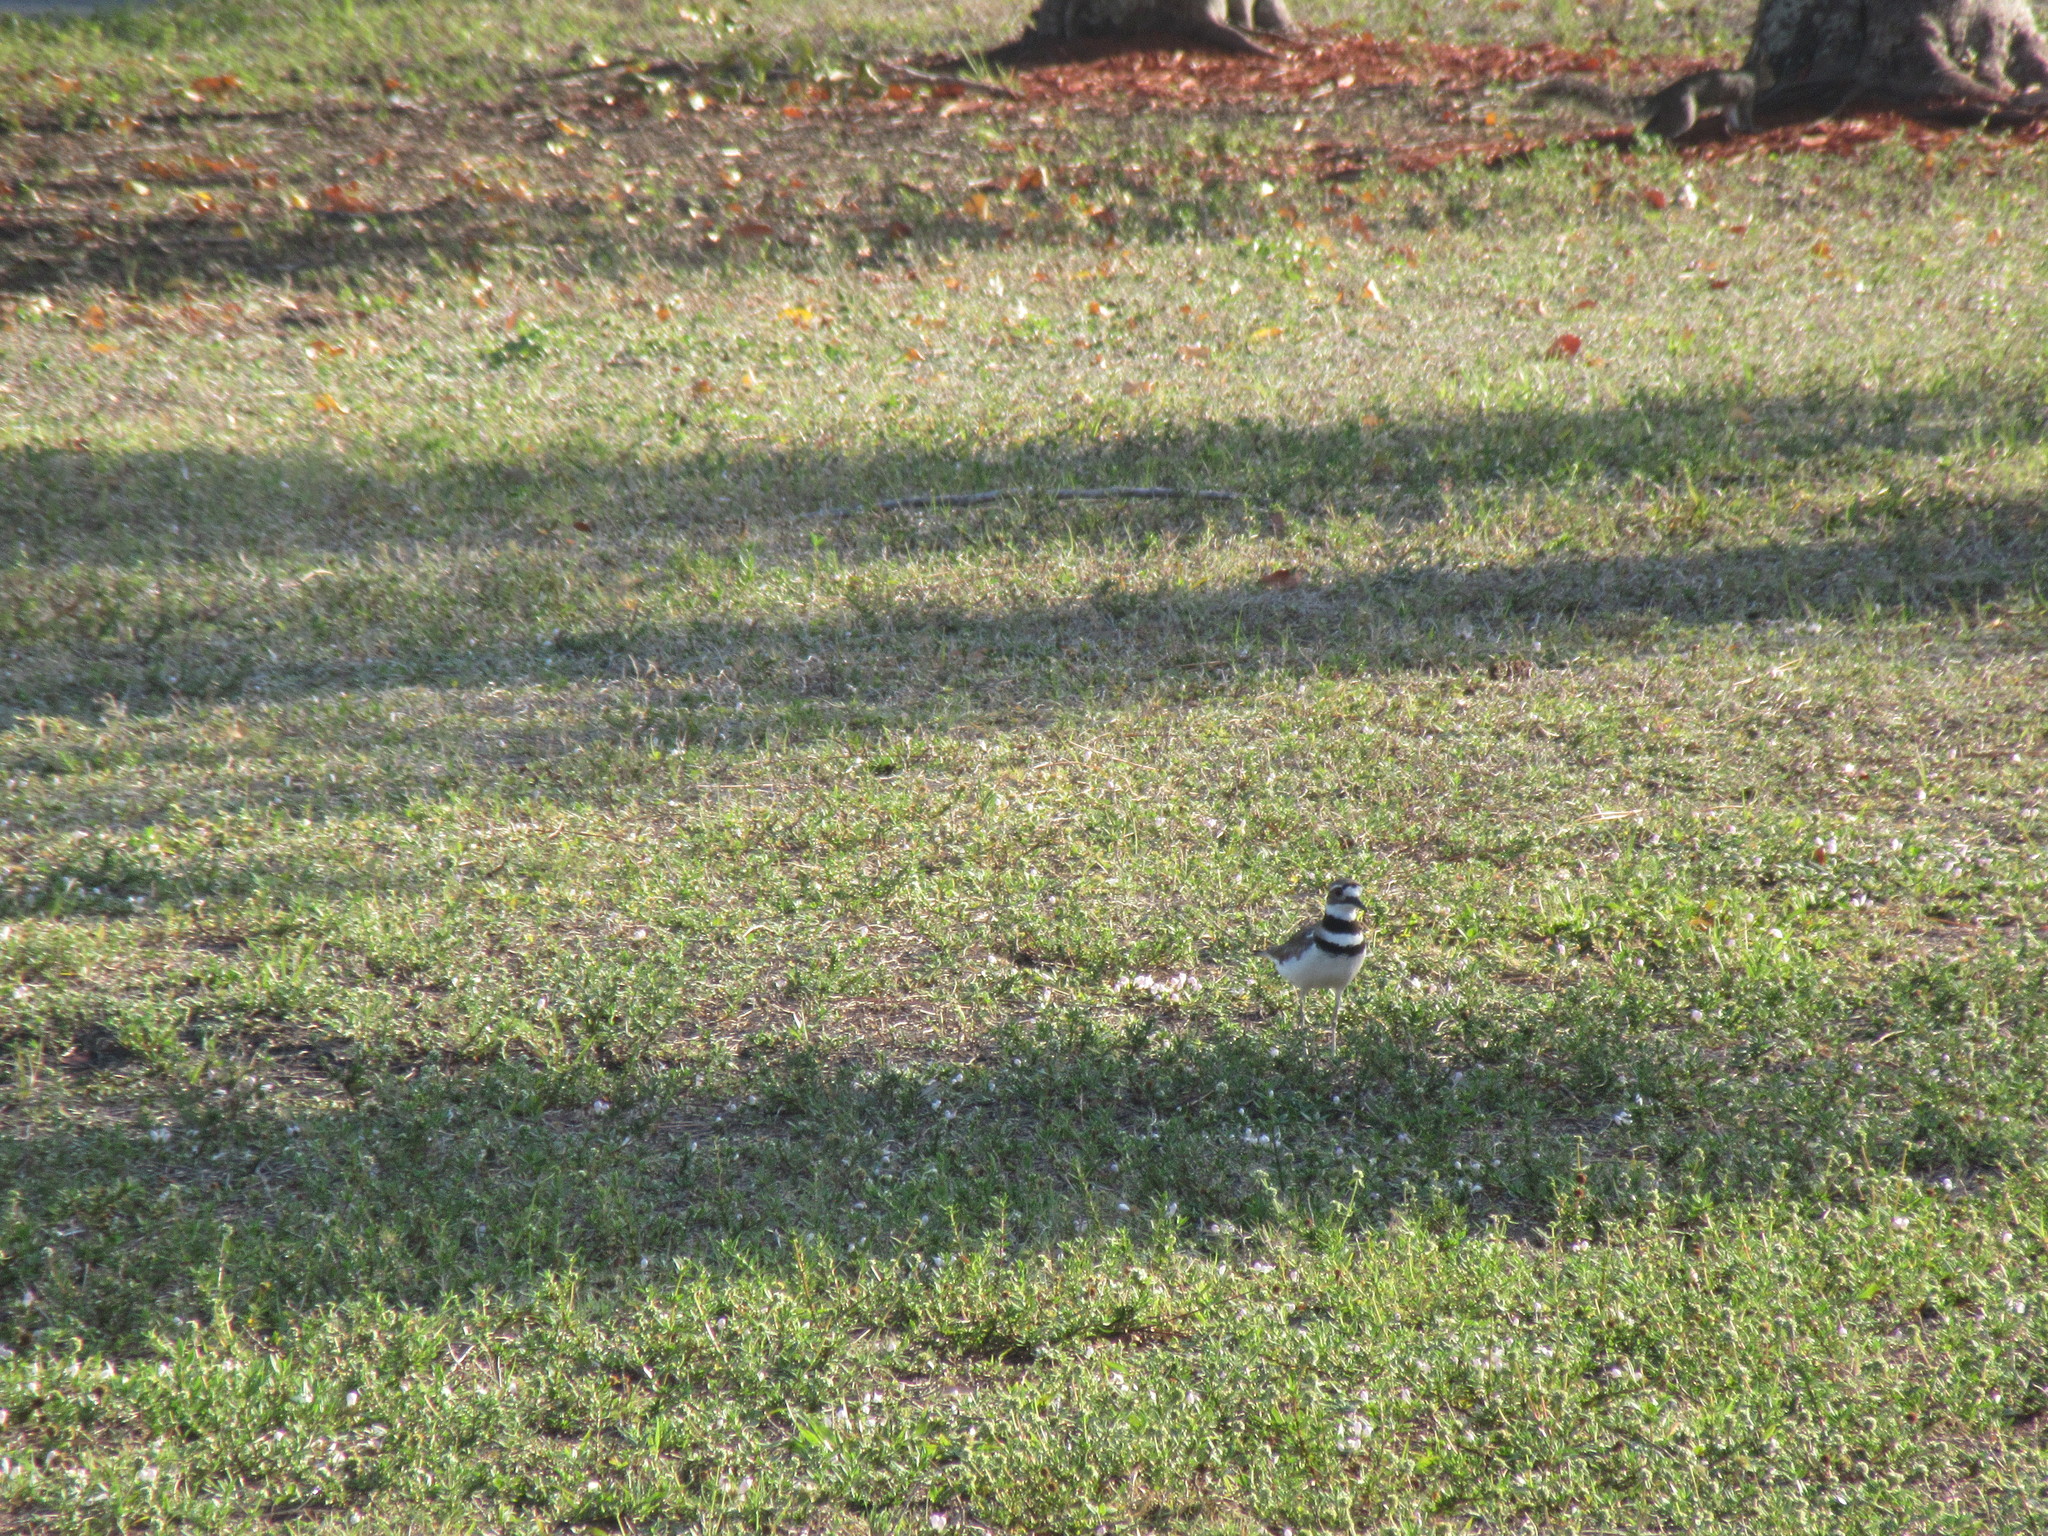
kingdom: Animalia
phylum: Chordata
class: Aves
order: Charadriiformes
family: Charadriidae
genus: Charadrius
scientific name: Charadrius vociferus
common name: Killdeer
